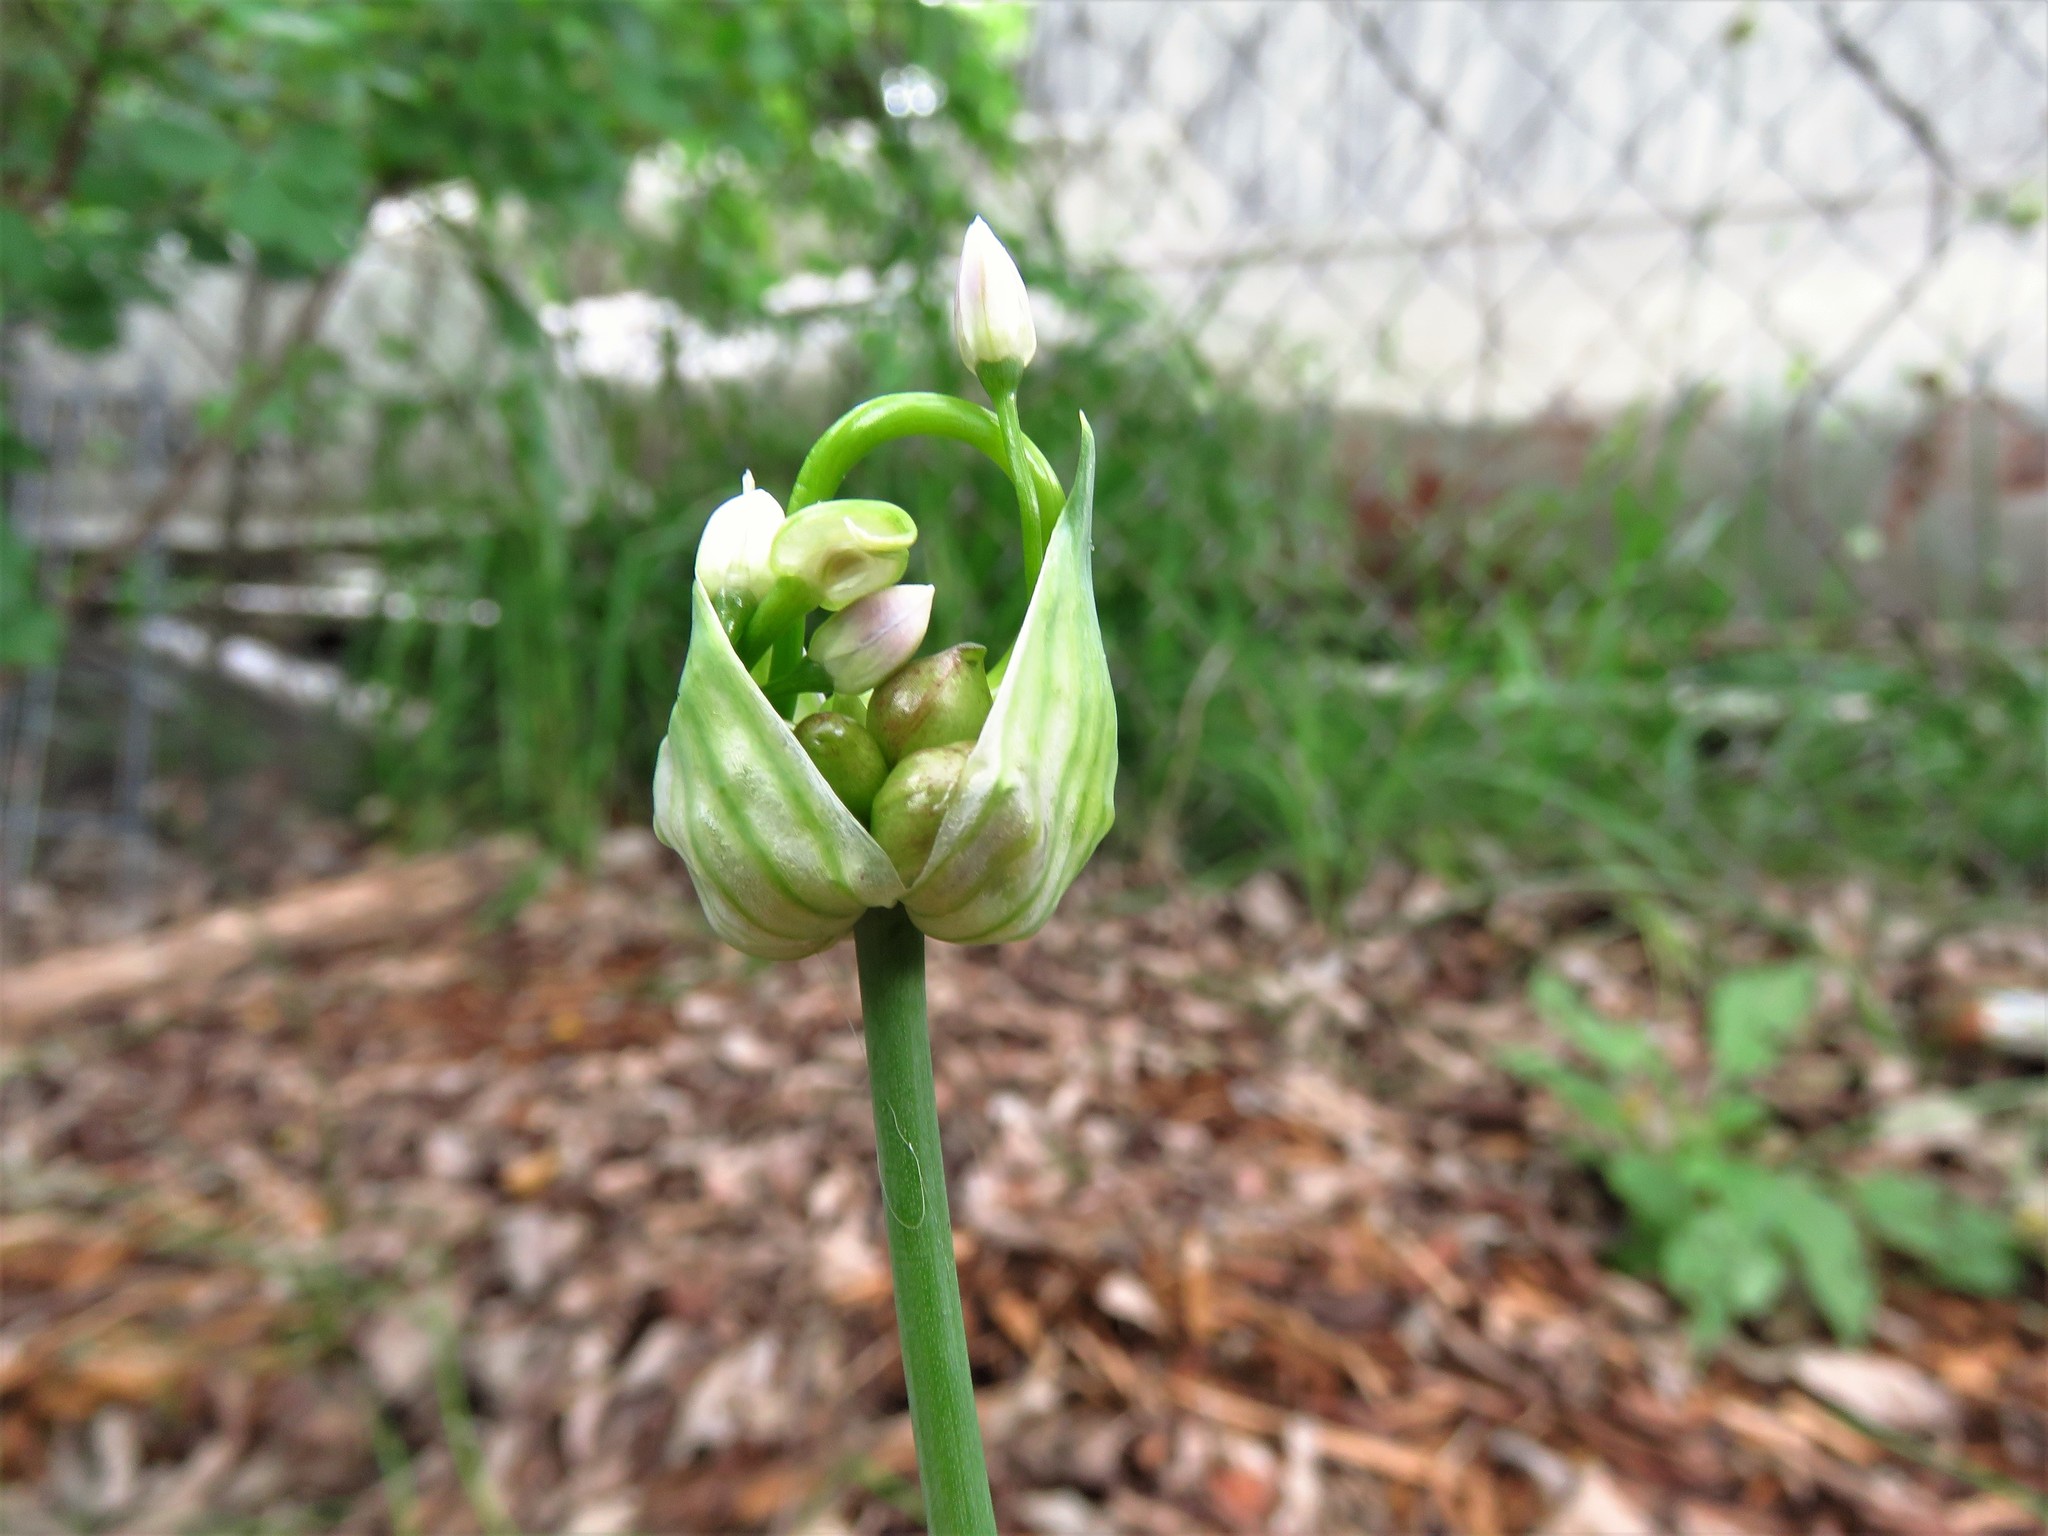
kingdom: Plantae
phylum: Tracheophyta
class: Liliopsida
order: Asparagales
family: Amaryllidaceae
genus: Allium
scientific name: Allium vineale
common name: Crow garlic
